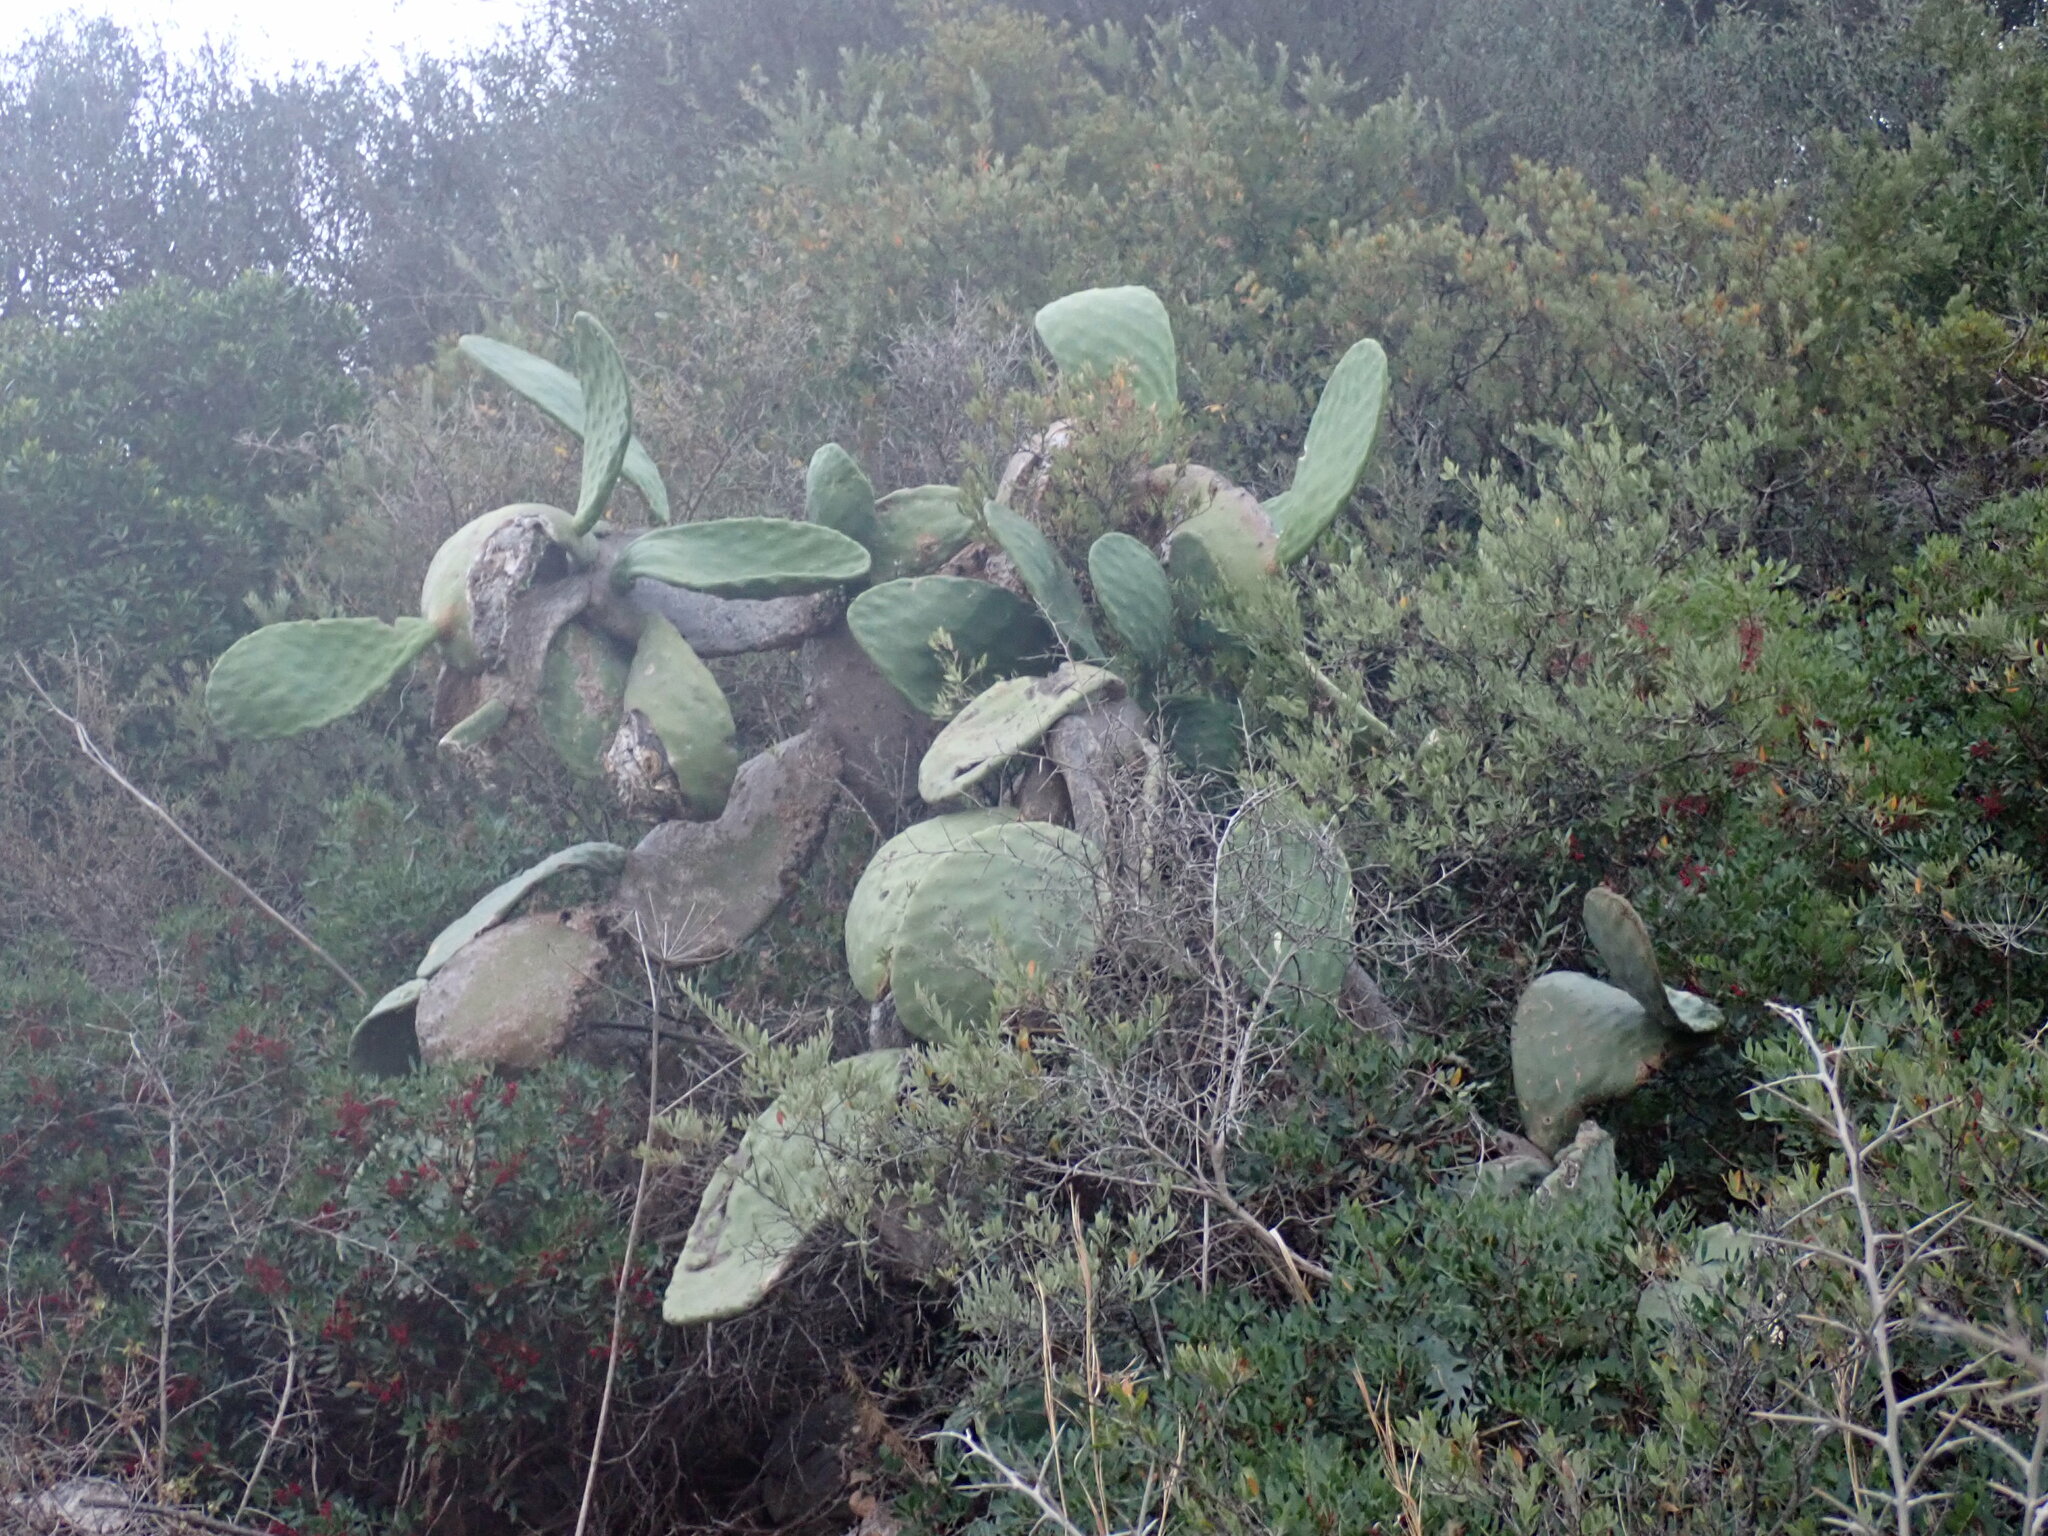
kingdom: Plantae
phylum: Tracheophyta
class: Magnoliopsida
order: Caryophyllales
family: Cactaceae
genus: Opuntia
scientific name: Opuntia ficus-indica
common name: Barbary fig
